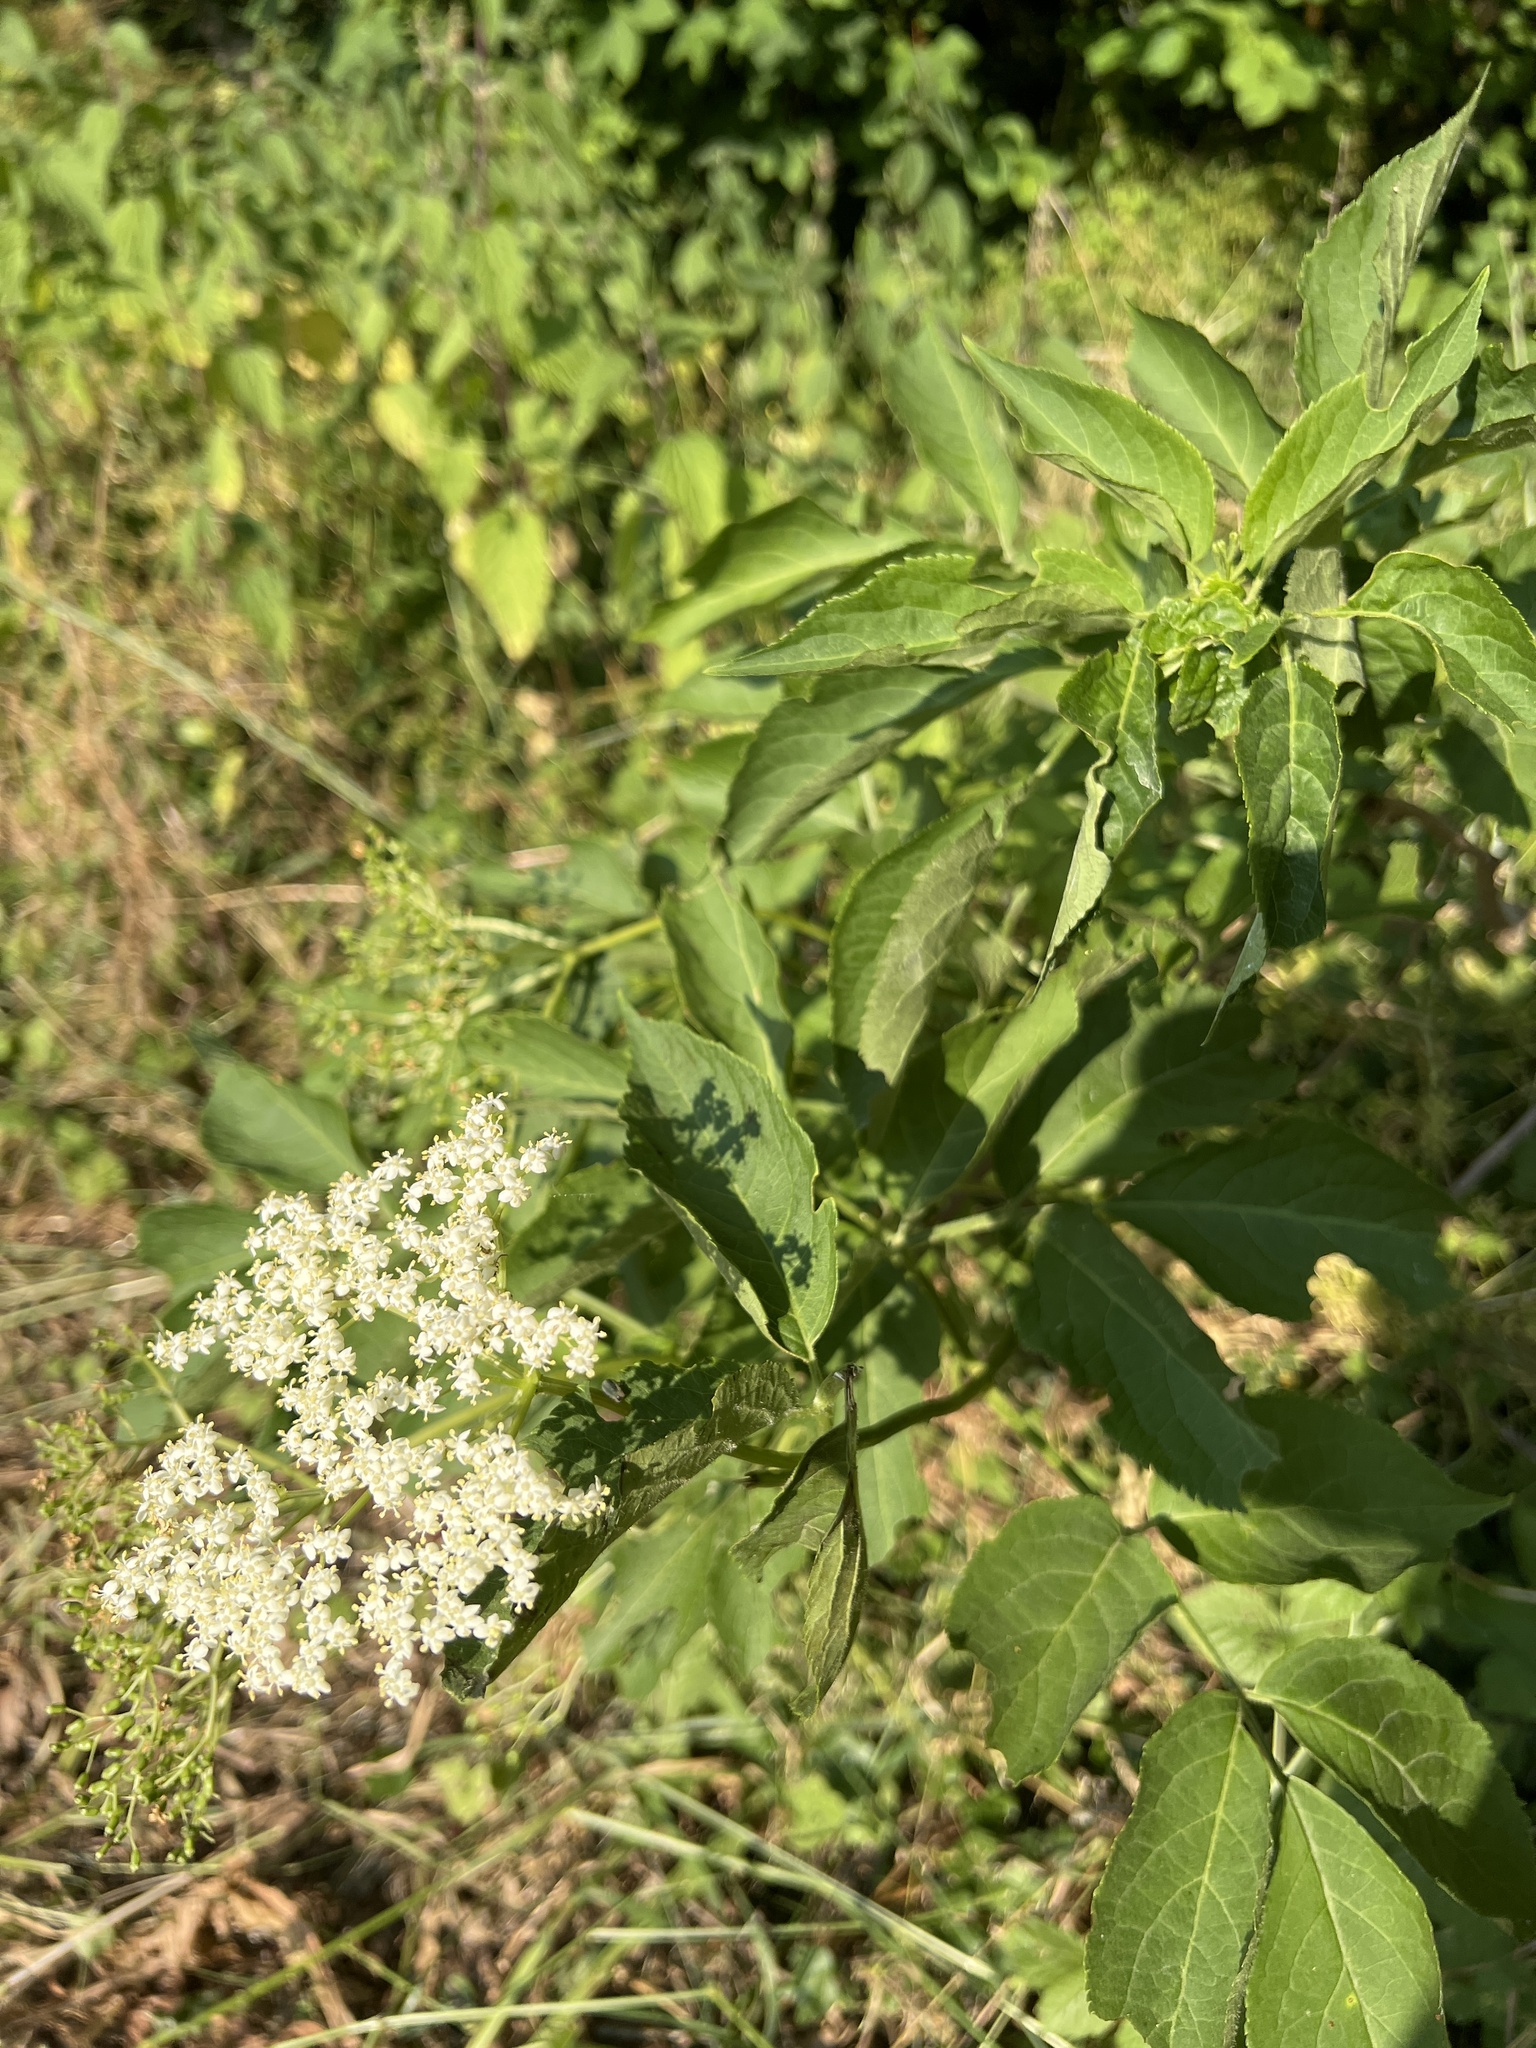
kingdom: Plantae
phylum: Tracheophyta
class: Magnoliopsida
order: Dipsacales
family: Viburnaceae
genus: Sambucus
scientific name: Sambucus nigra
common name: Elder
